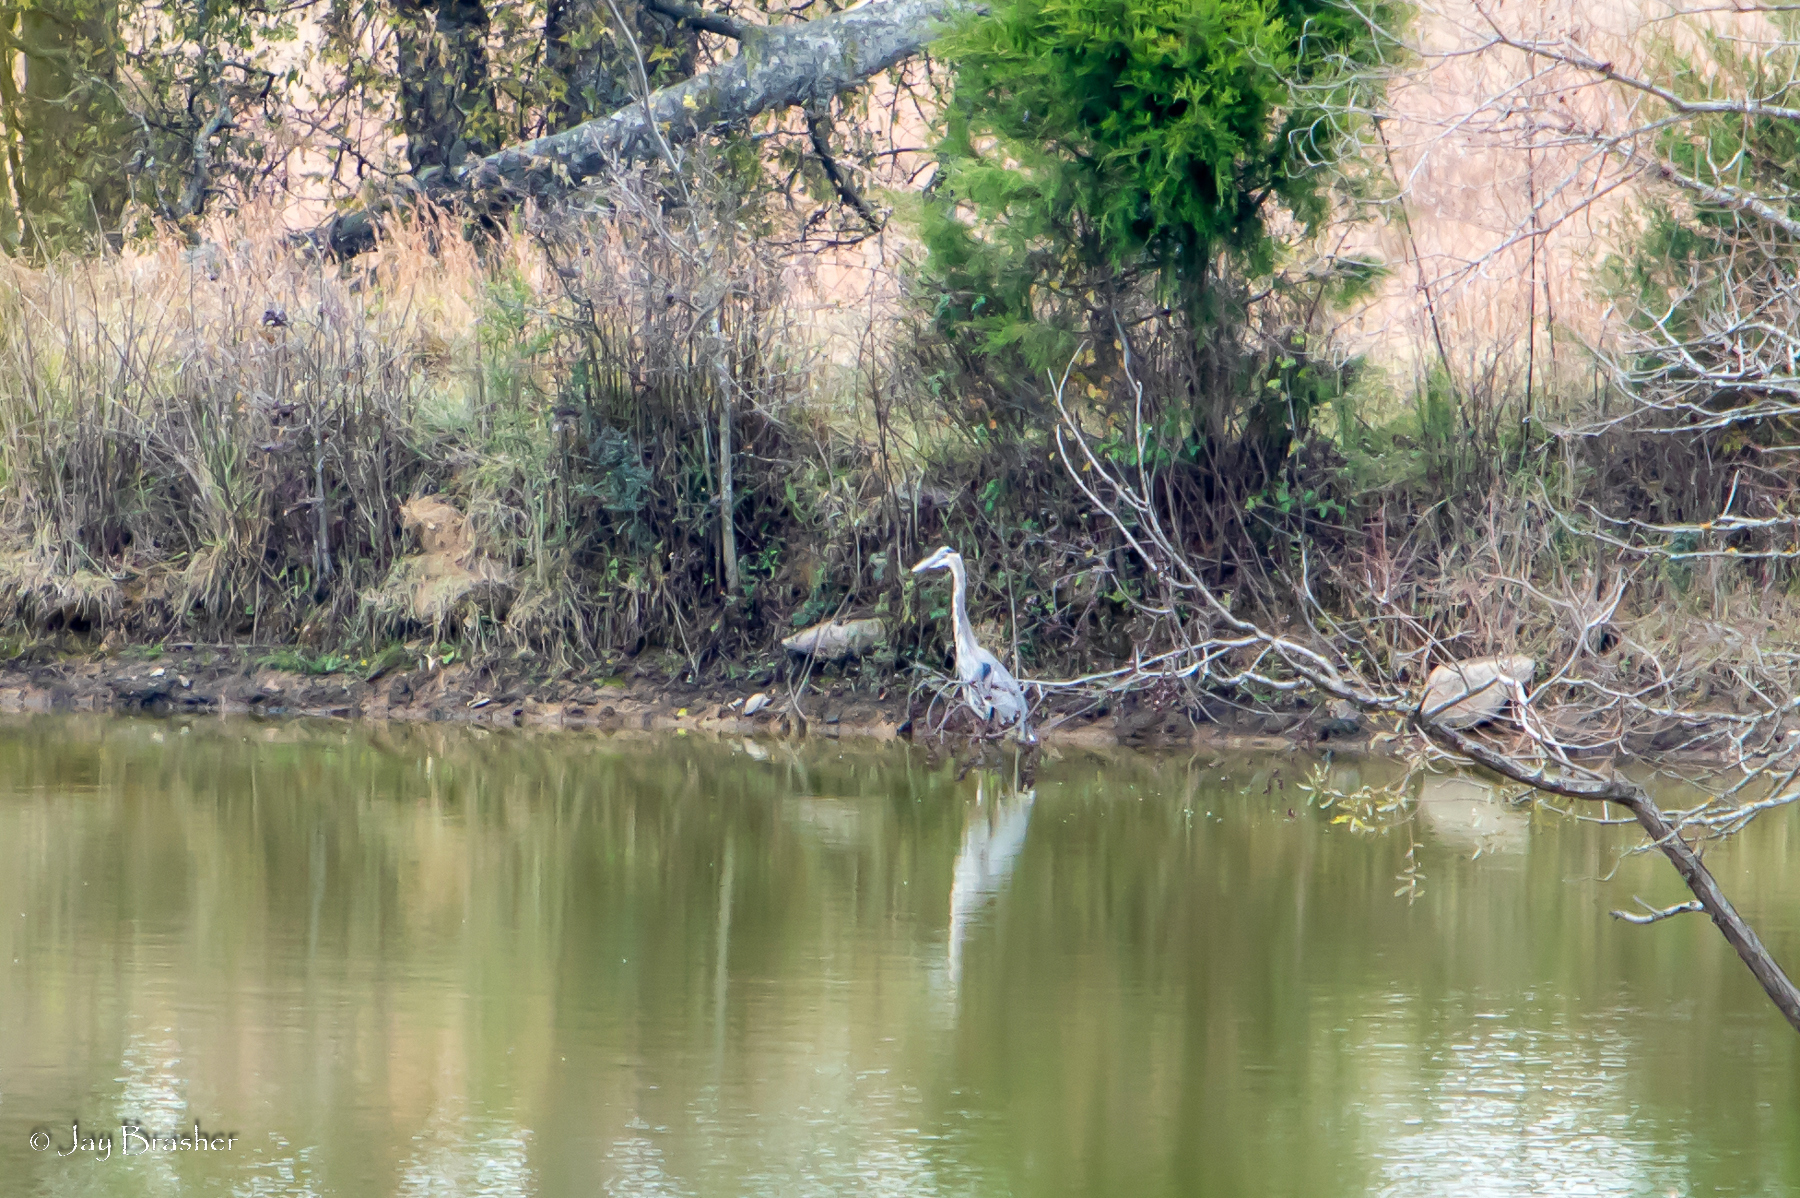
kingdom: Animalia
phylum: Chordata
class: Aves
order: Pelecaniformes
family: Ardeidae
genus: Ardea
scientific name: Ardea herodias
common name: Great blue heron
